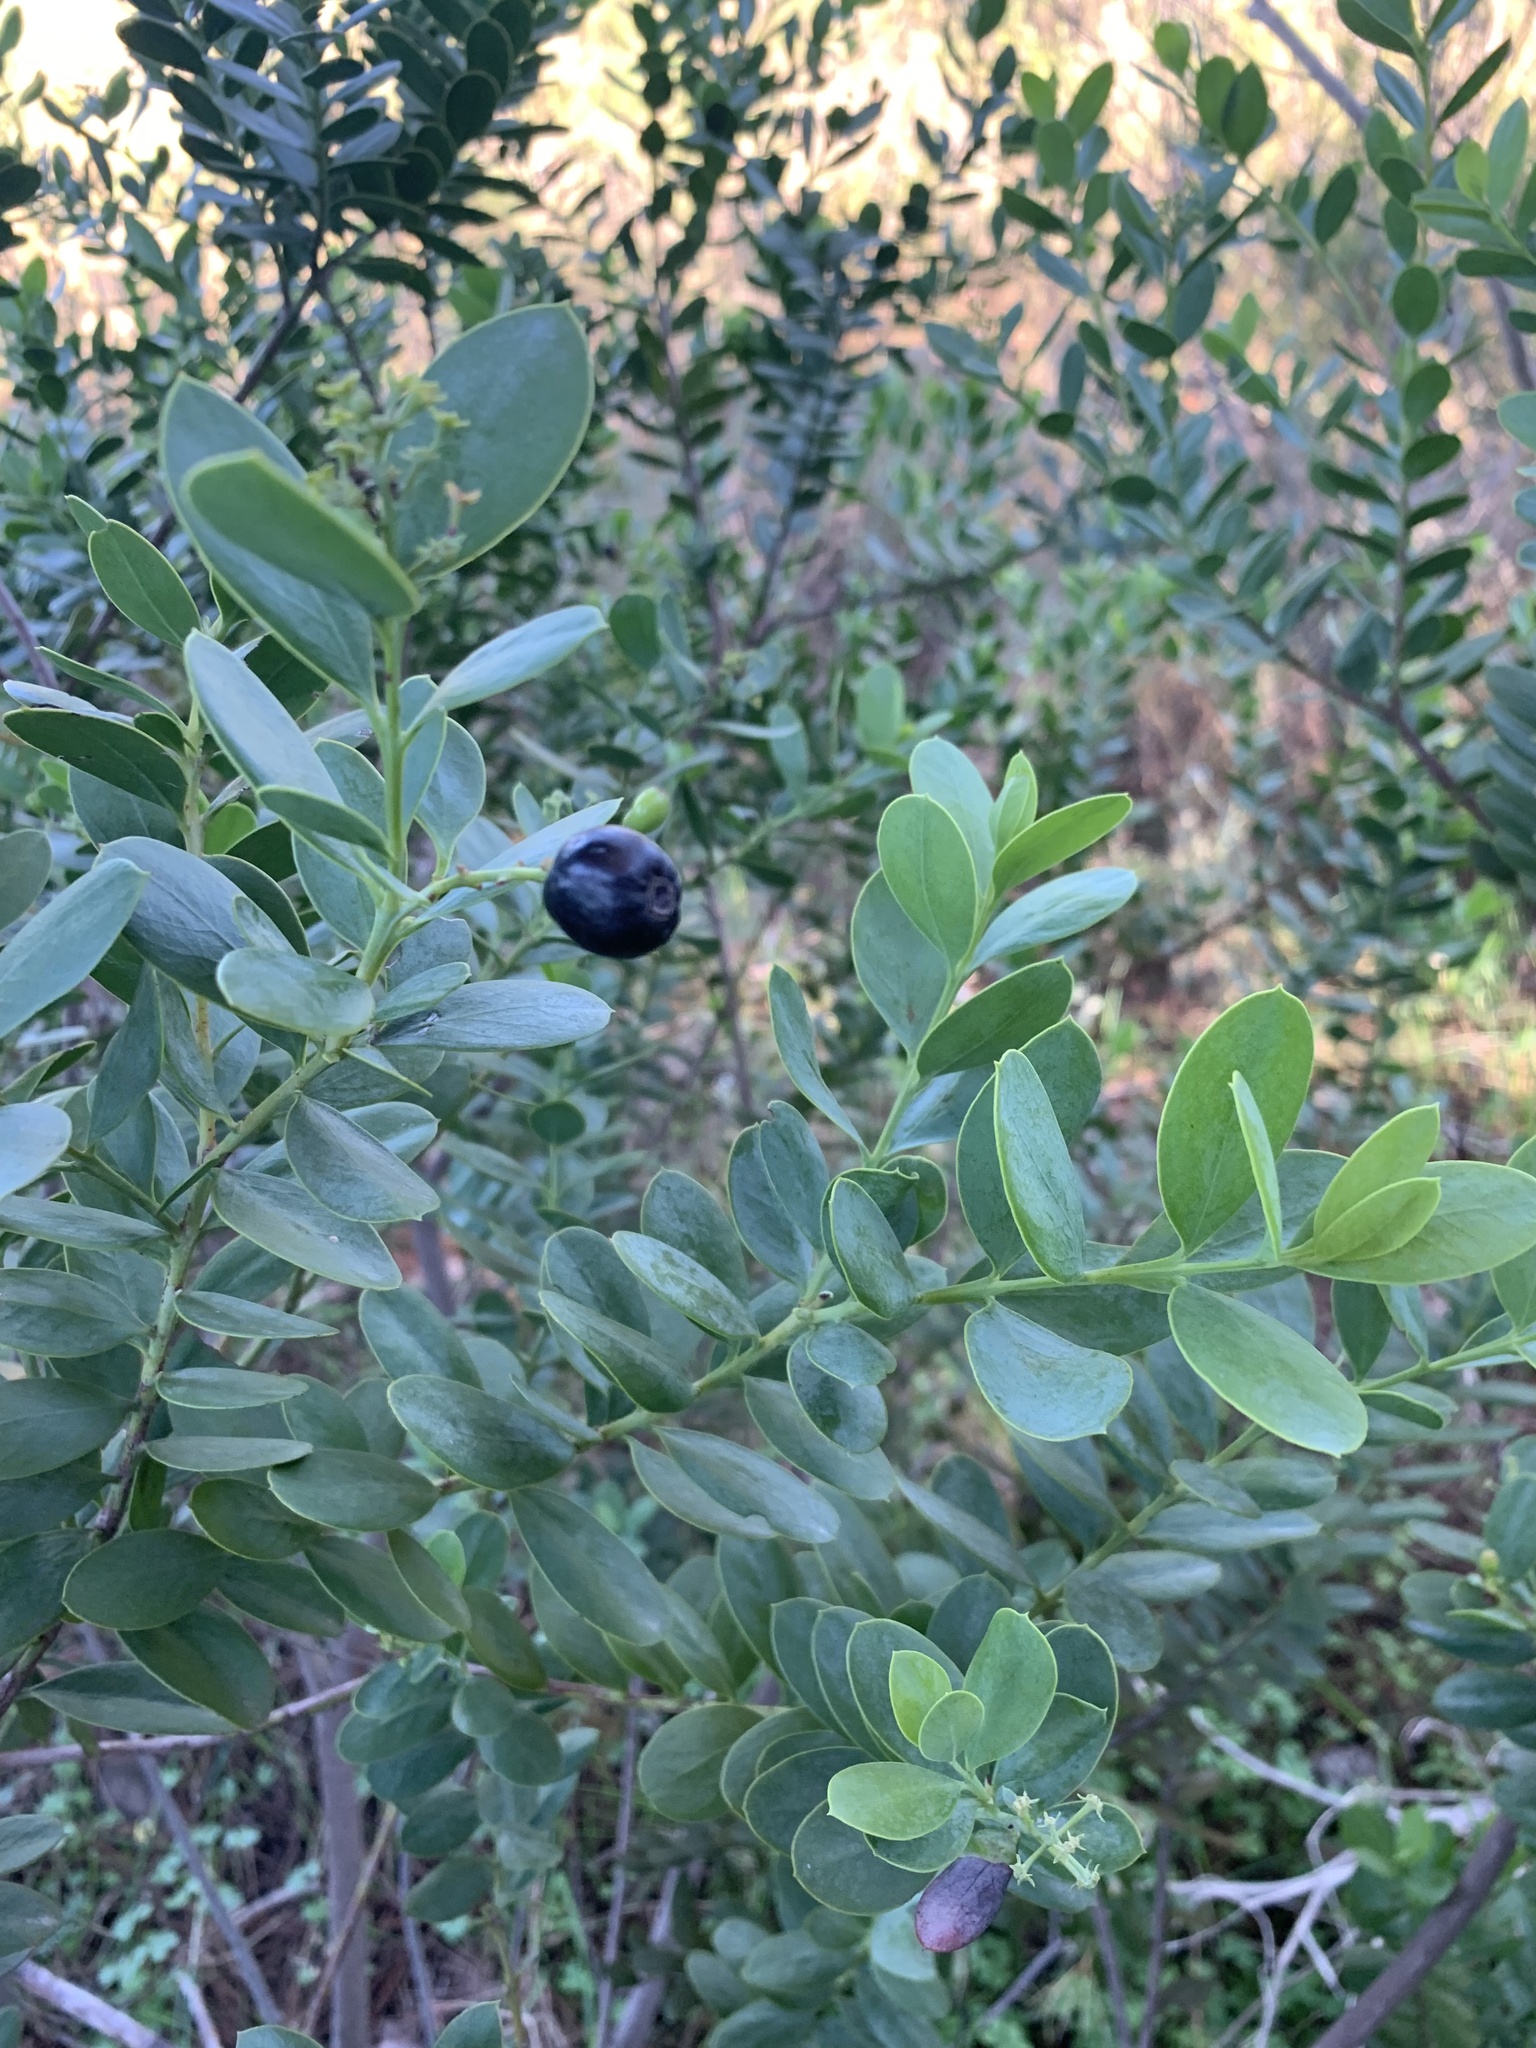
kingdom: Plantae
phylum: Tracheophyta
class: Magnoliopsida
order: Santalales
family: Santalaceae
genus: Osyris
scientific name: Osyris compressa
